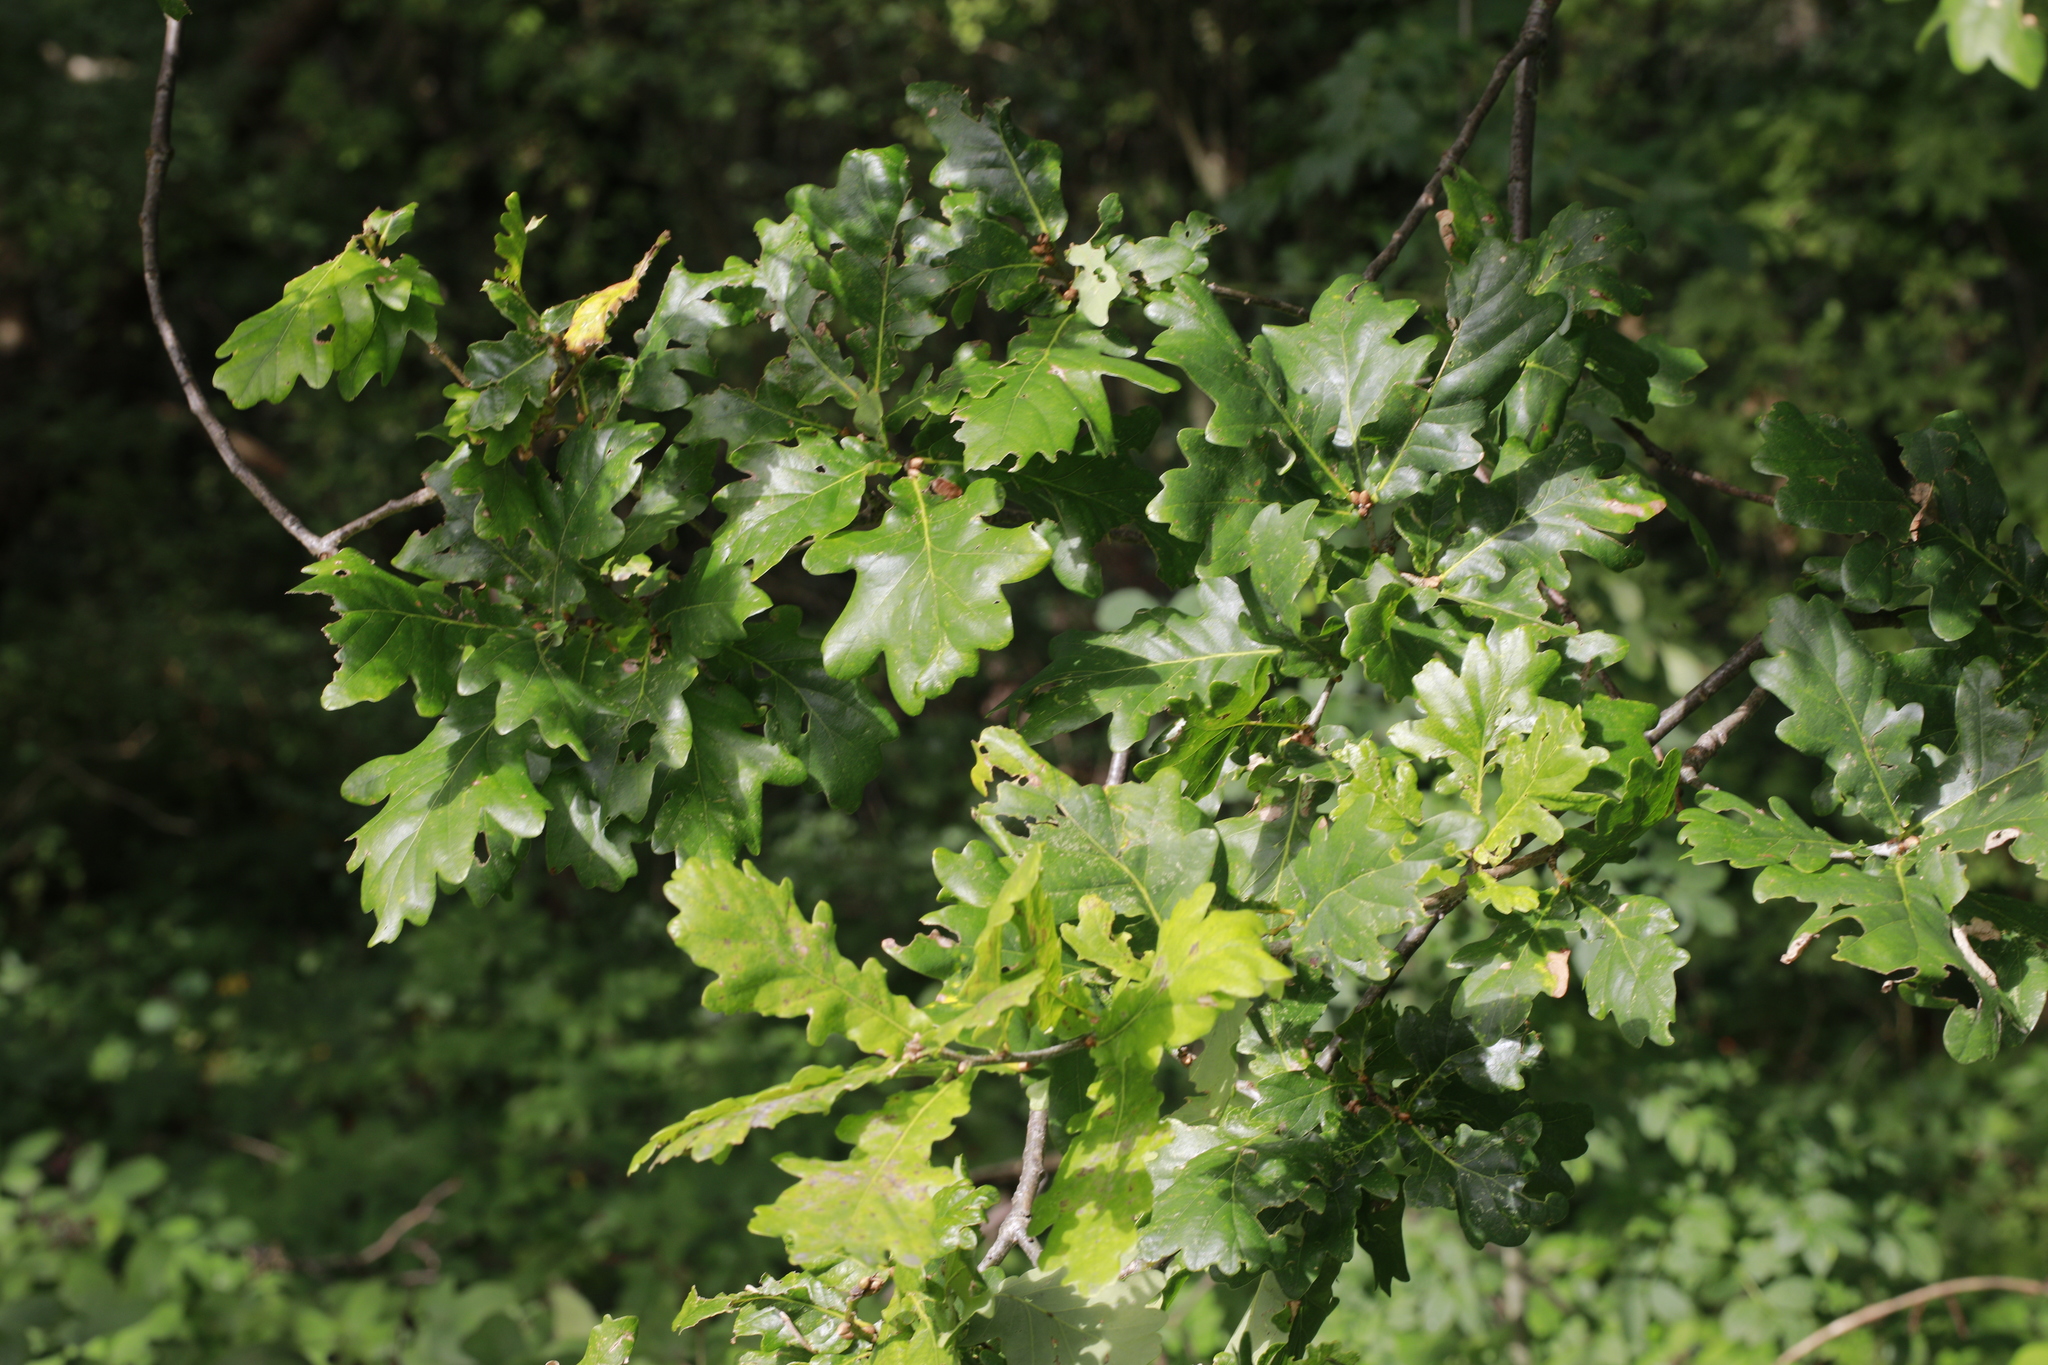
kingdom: Plantae
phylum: Tracheophyta
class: Magnoliopsida
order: Fagales
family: Fagaceae
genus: Quercus
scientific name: Quercus robur
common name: Pedunculate oak
